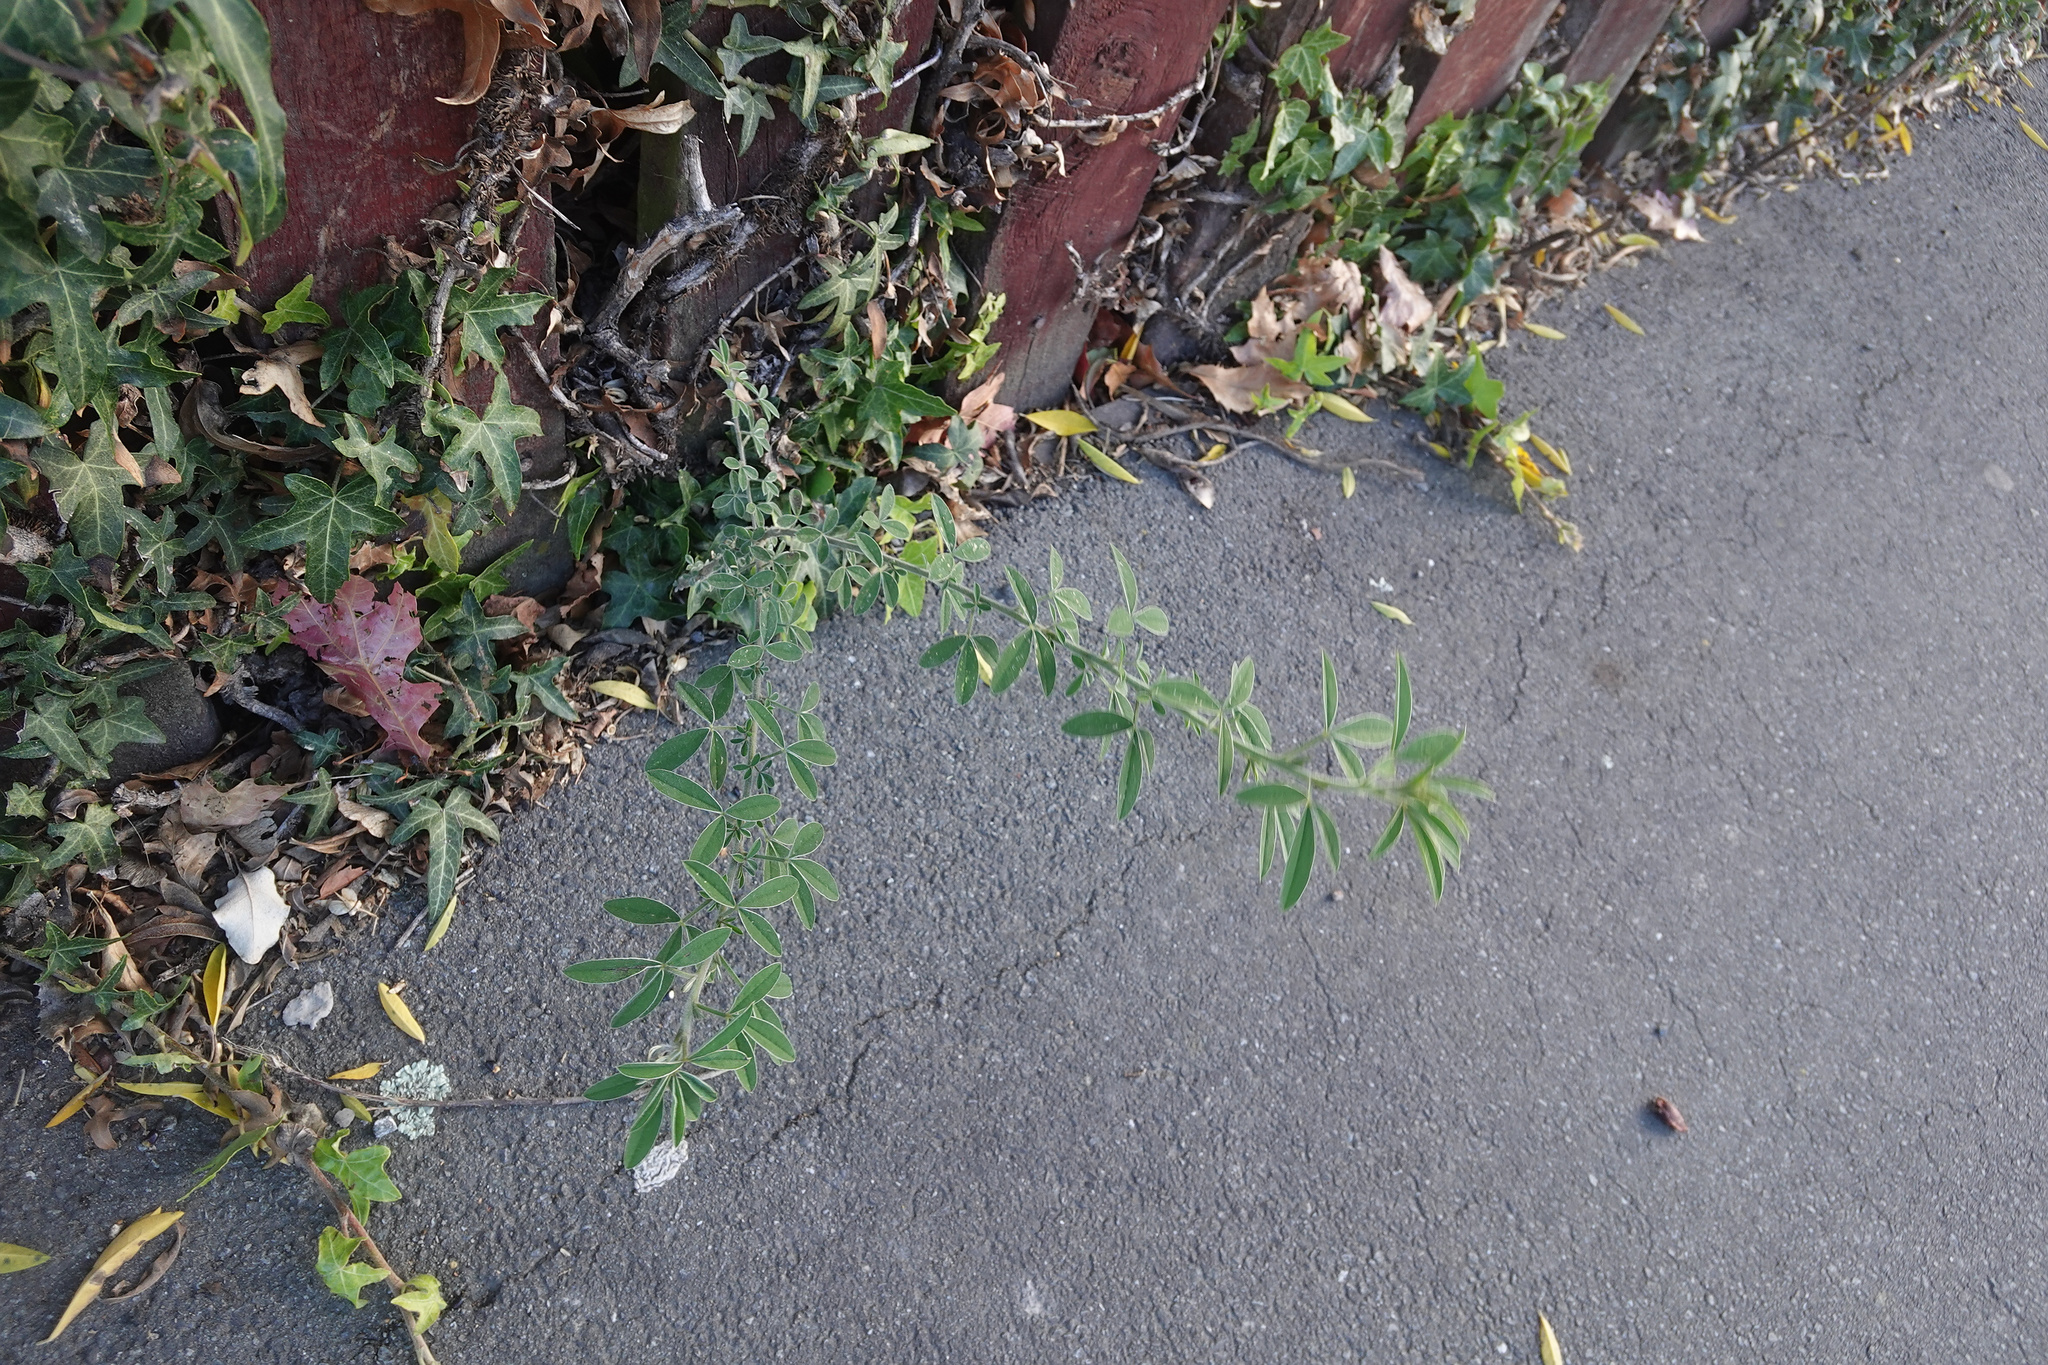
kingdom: Plantae
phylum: Tracheophyta
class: Magnoliopsida
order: Fabales
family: Fabaceae
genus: Chamaecytisus
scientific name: Chamaecytisus prolifer
